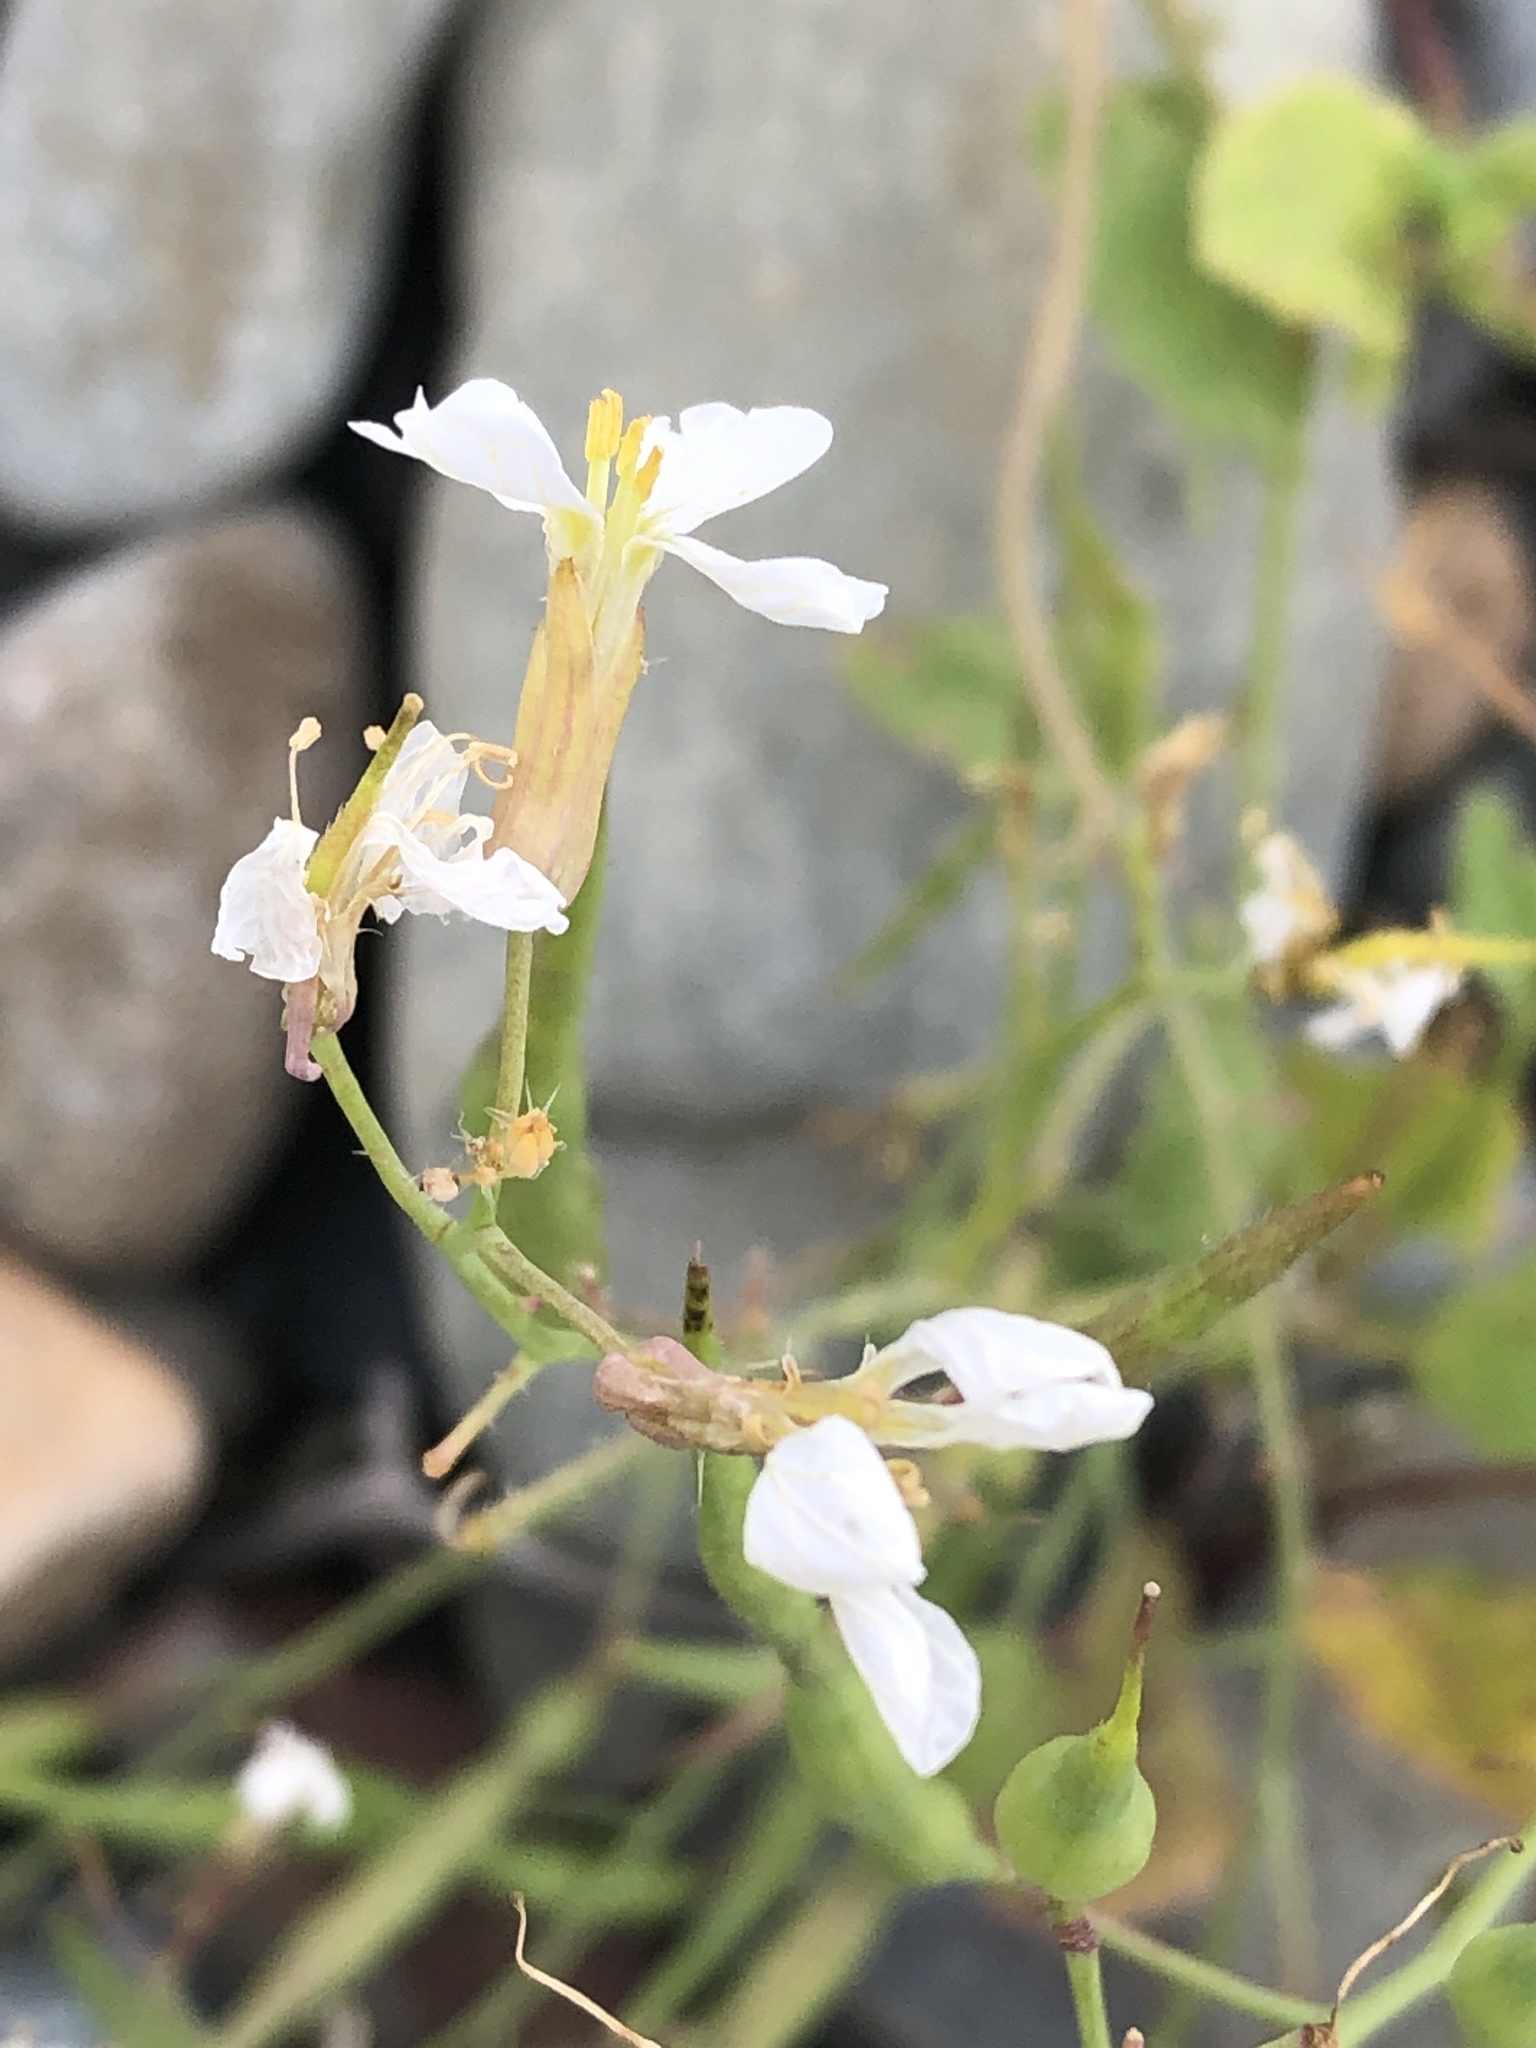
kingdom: Plantae
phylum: Tracheophyta
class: Magnoliopsida
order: Brassicales
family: Brassicaceae
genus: Raphanus
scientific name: Raphanus raphanistrum
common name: Wild radish
